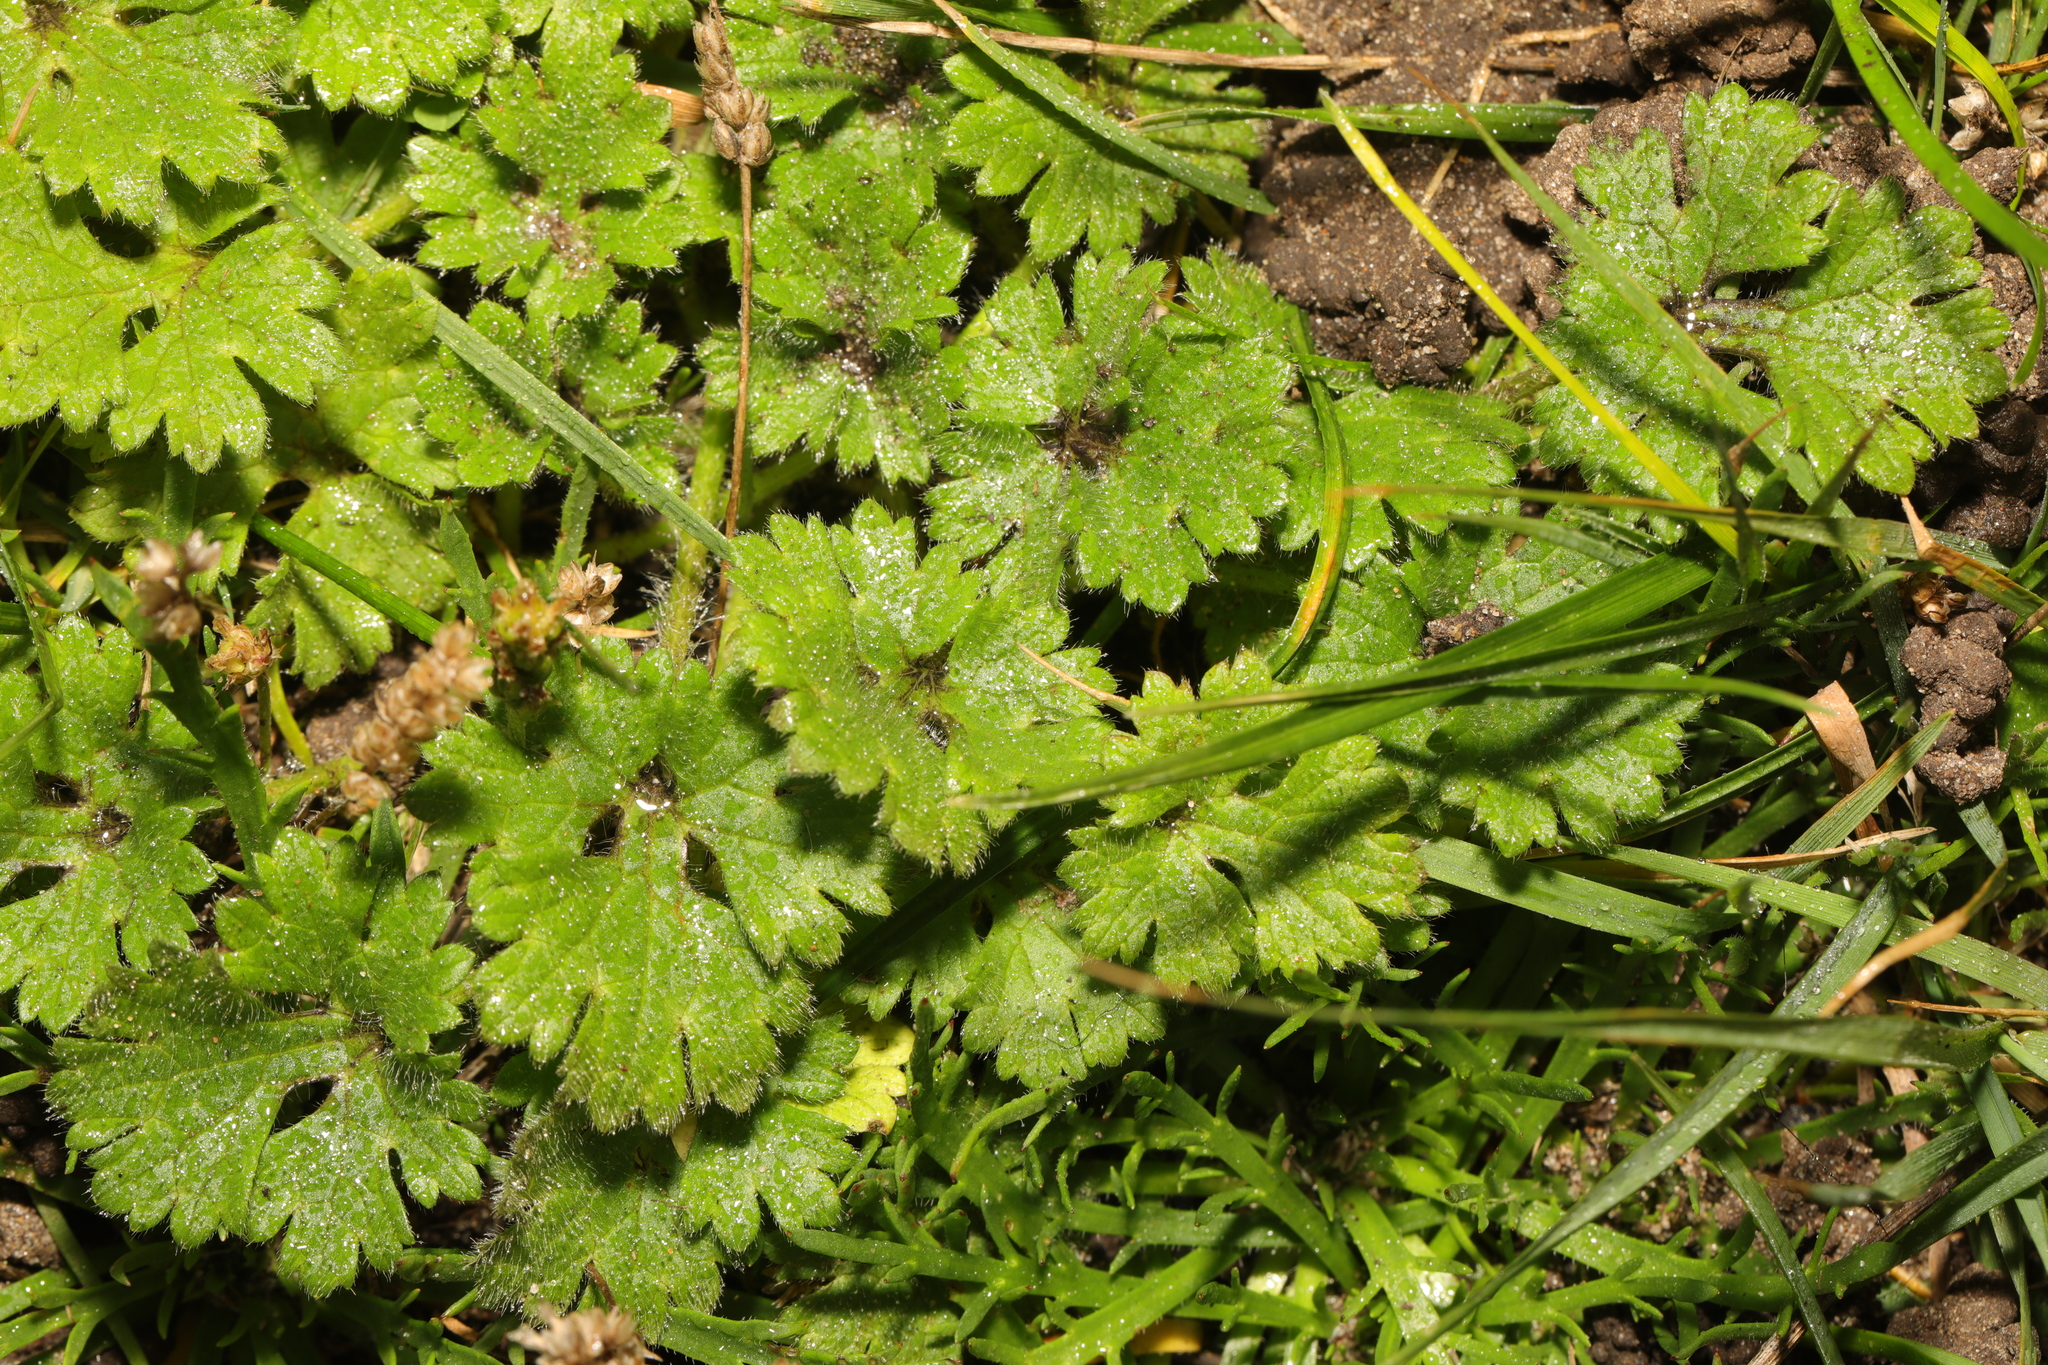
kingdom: Plantae
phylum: Tracheophyta
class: Magnoliopsida
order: Ranunculales
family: Ranunculaceae
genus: Ranunculus
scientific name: Ranunculus repens
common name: Creeping buttercup
